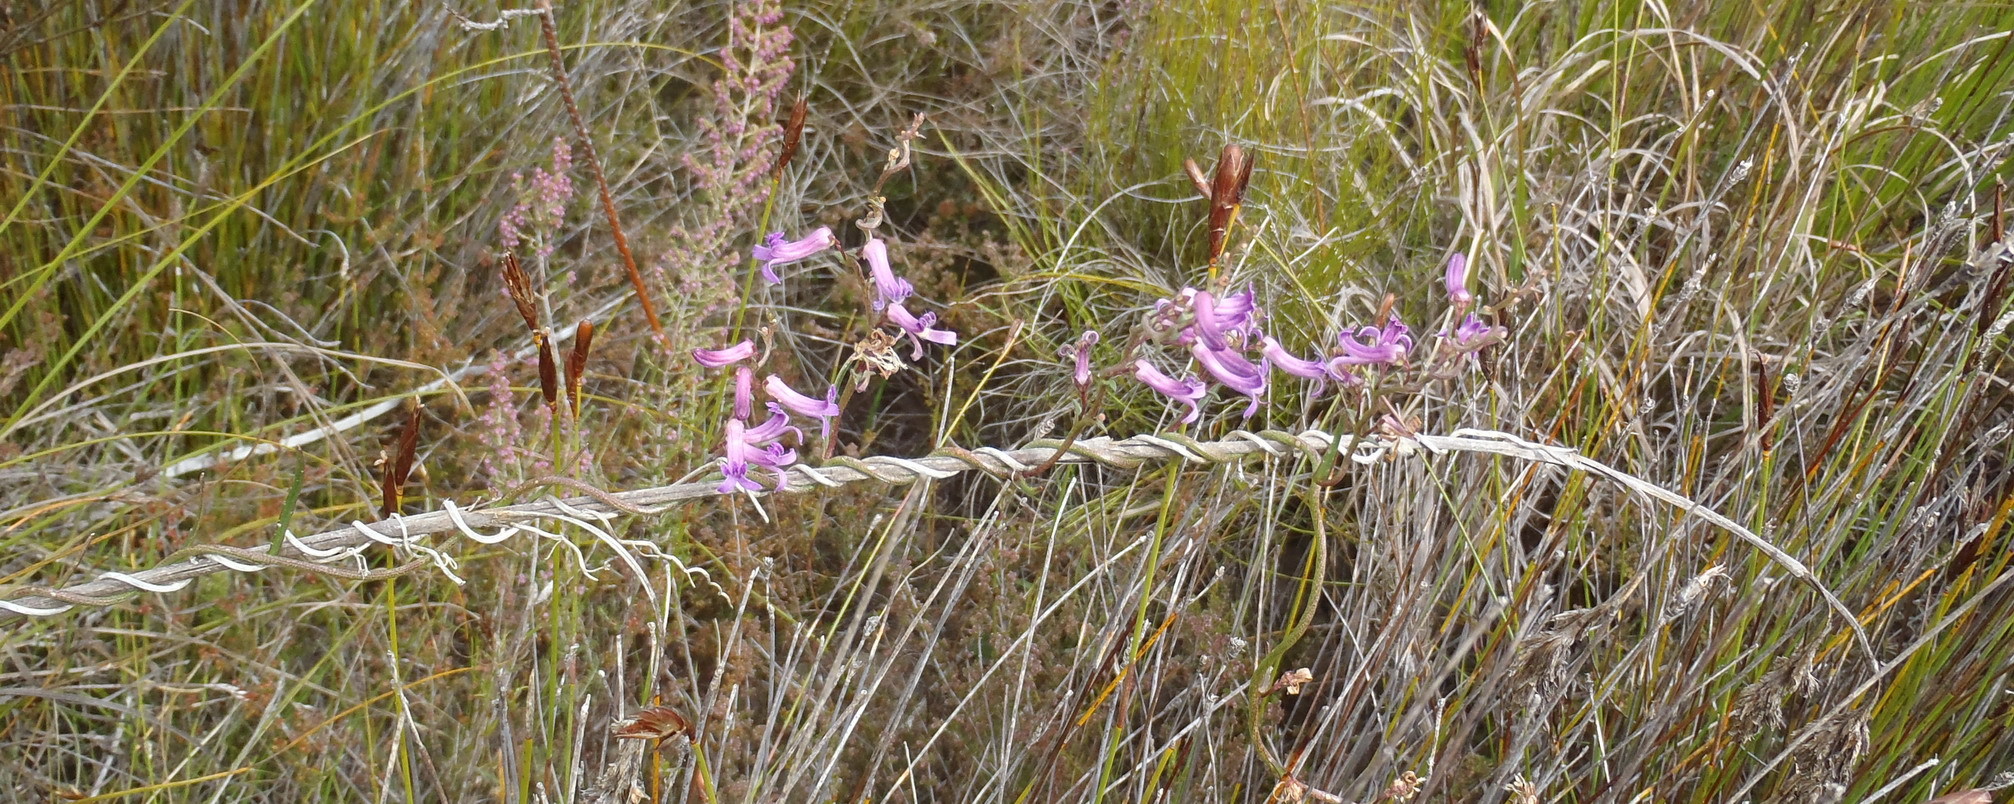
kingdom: Plantae
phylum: Tracheophyta
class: Magnoliopsida
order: Asterales
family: Campanulaceae
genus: Cyphia
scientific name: Cyphia digitata
